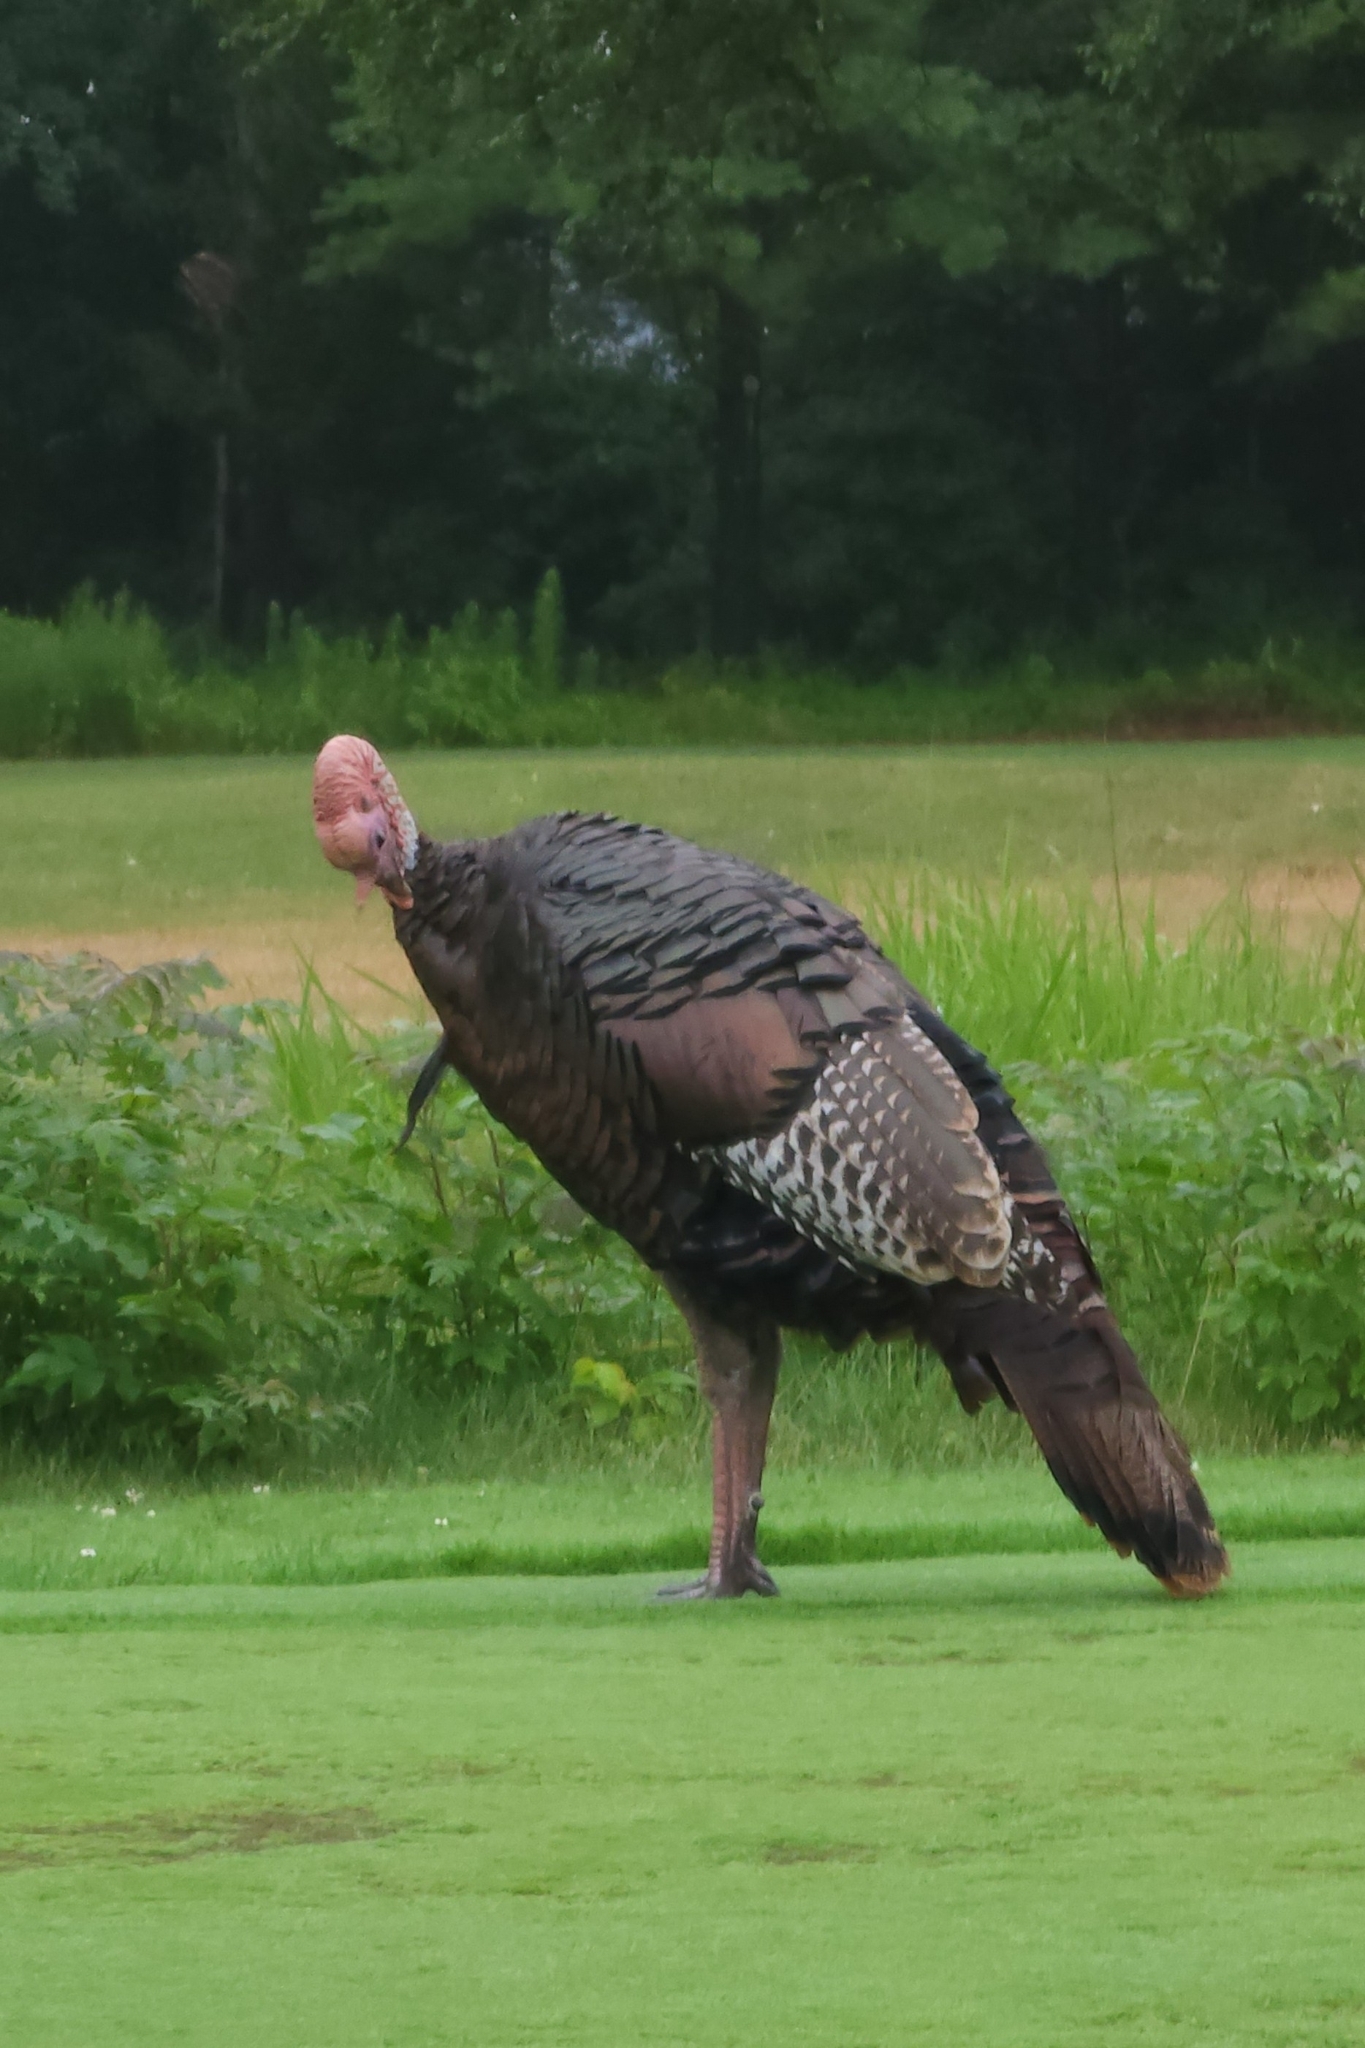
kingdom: Animalia
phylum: Chordata
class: Aves
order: Galliformes
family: Phasianidae
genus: Meleagris
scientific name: Meleagris gallopavo
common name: Wild turkey
